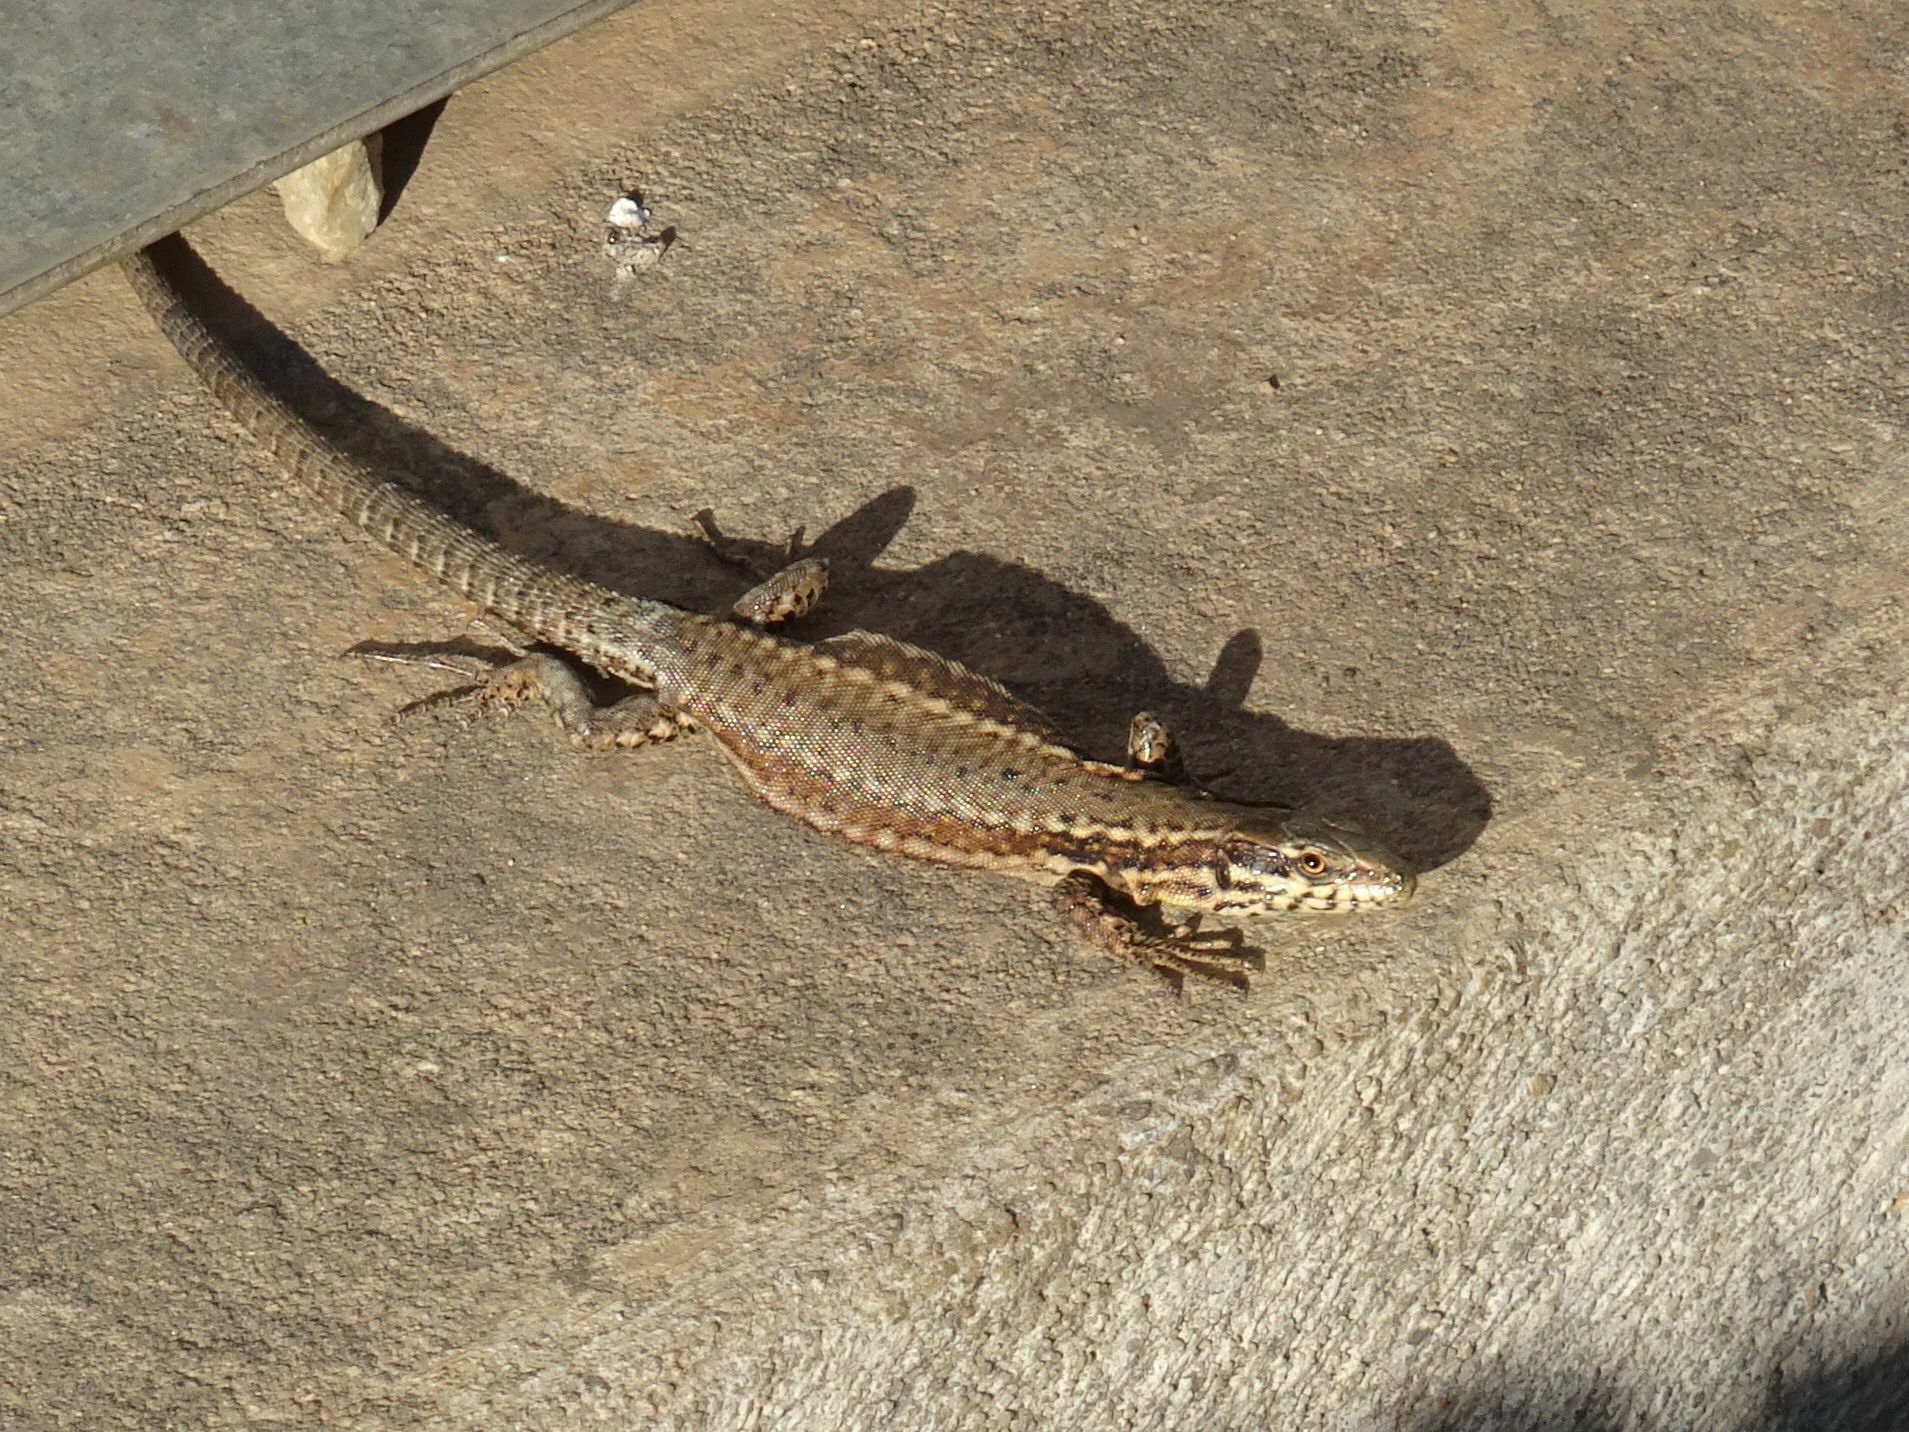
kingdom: Animalia
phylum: Chordata
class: Squamata
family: Lacertidae
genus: Podarcis
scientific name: Podarcis muralis
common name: Common wall lizard
